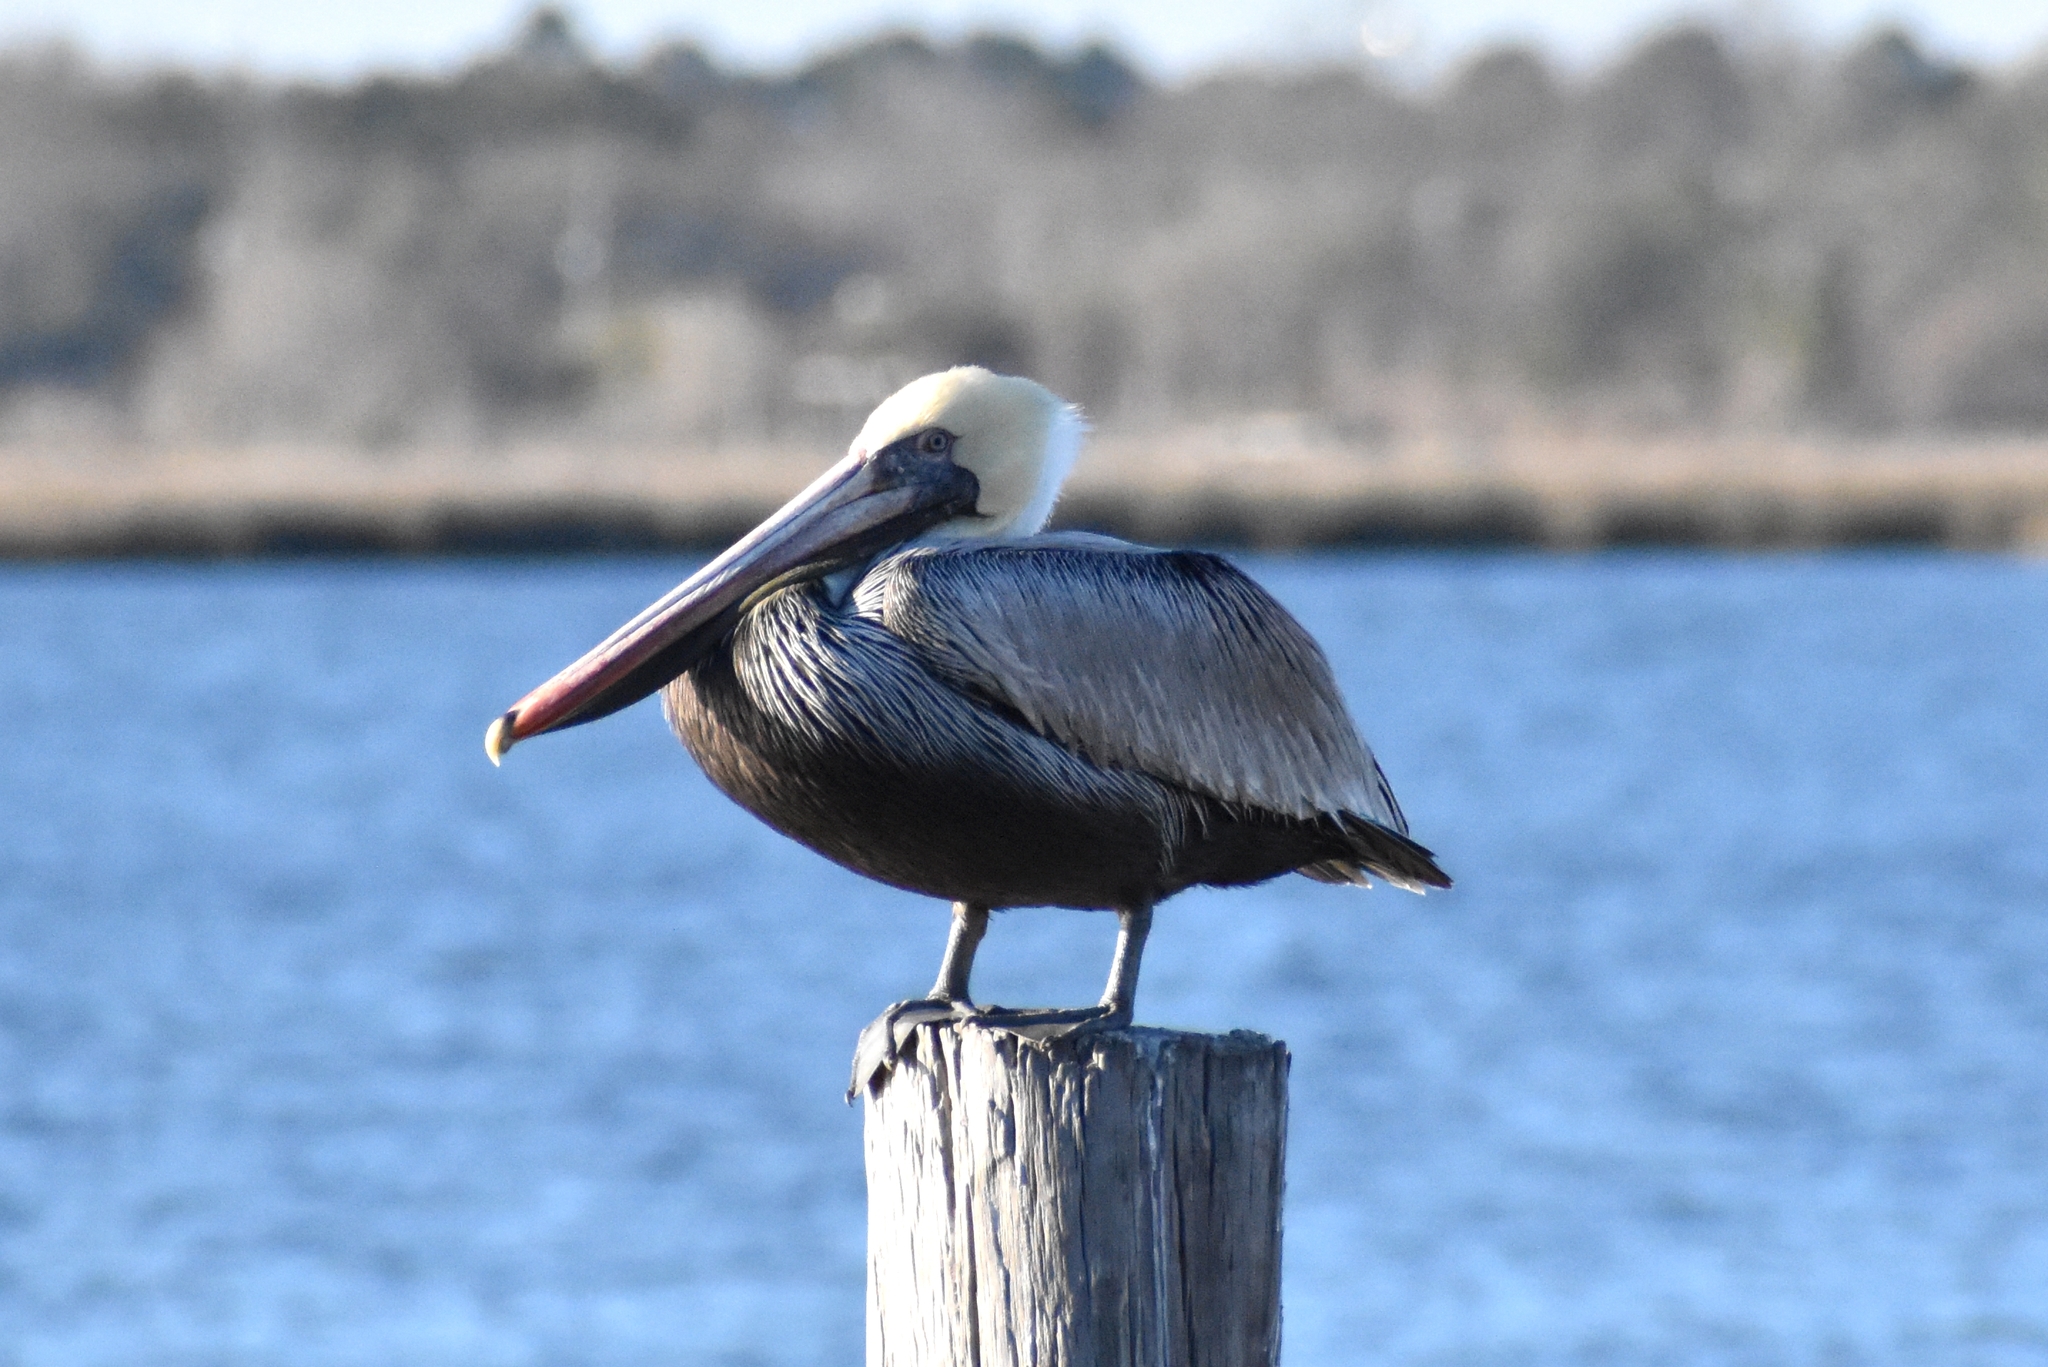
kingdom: Animalia
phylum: Chordata
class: Aves
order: Pelecaniformes
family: Pelecanidae
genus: Pelecanus
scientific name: Pelecanus occidentalis
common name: Brown pelican
